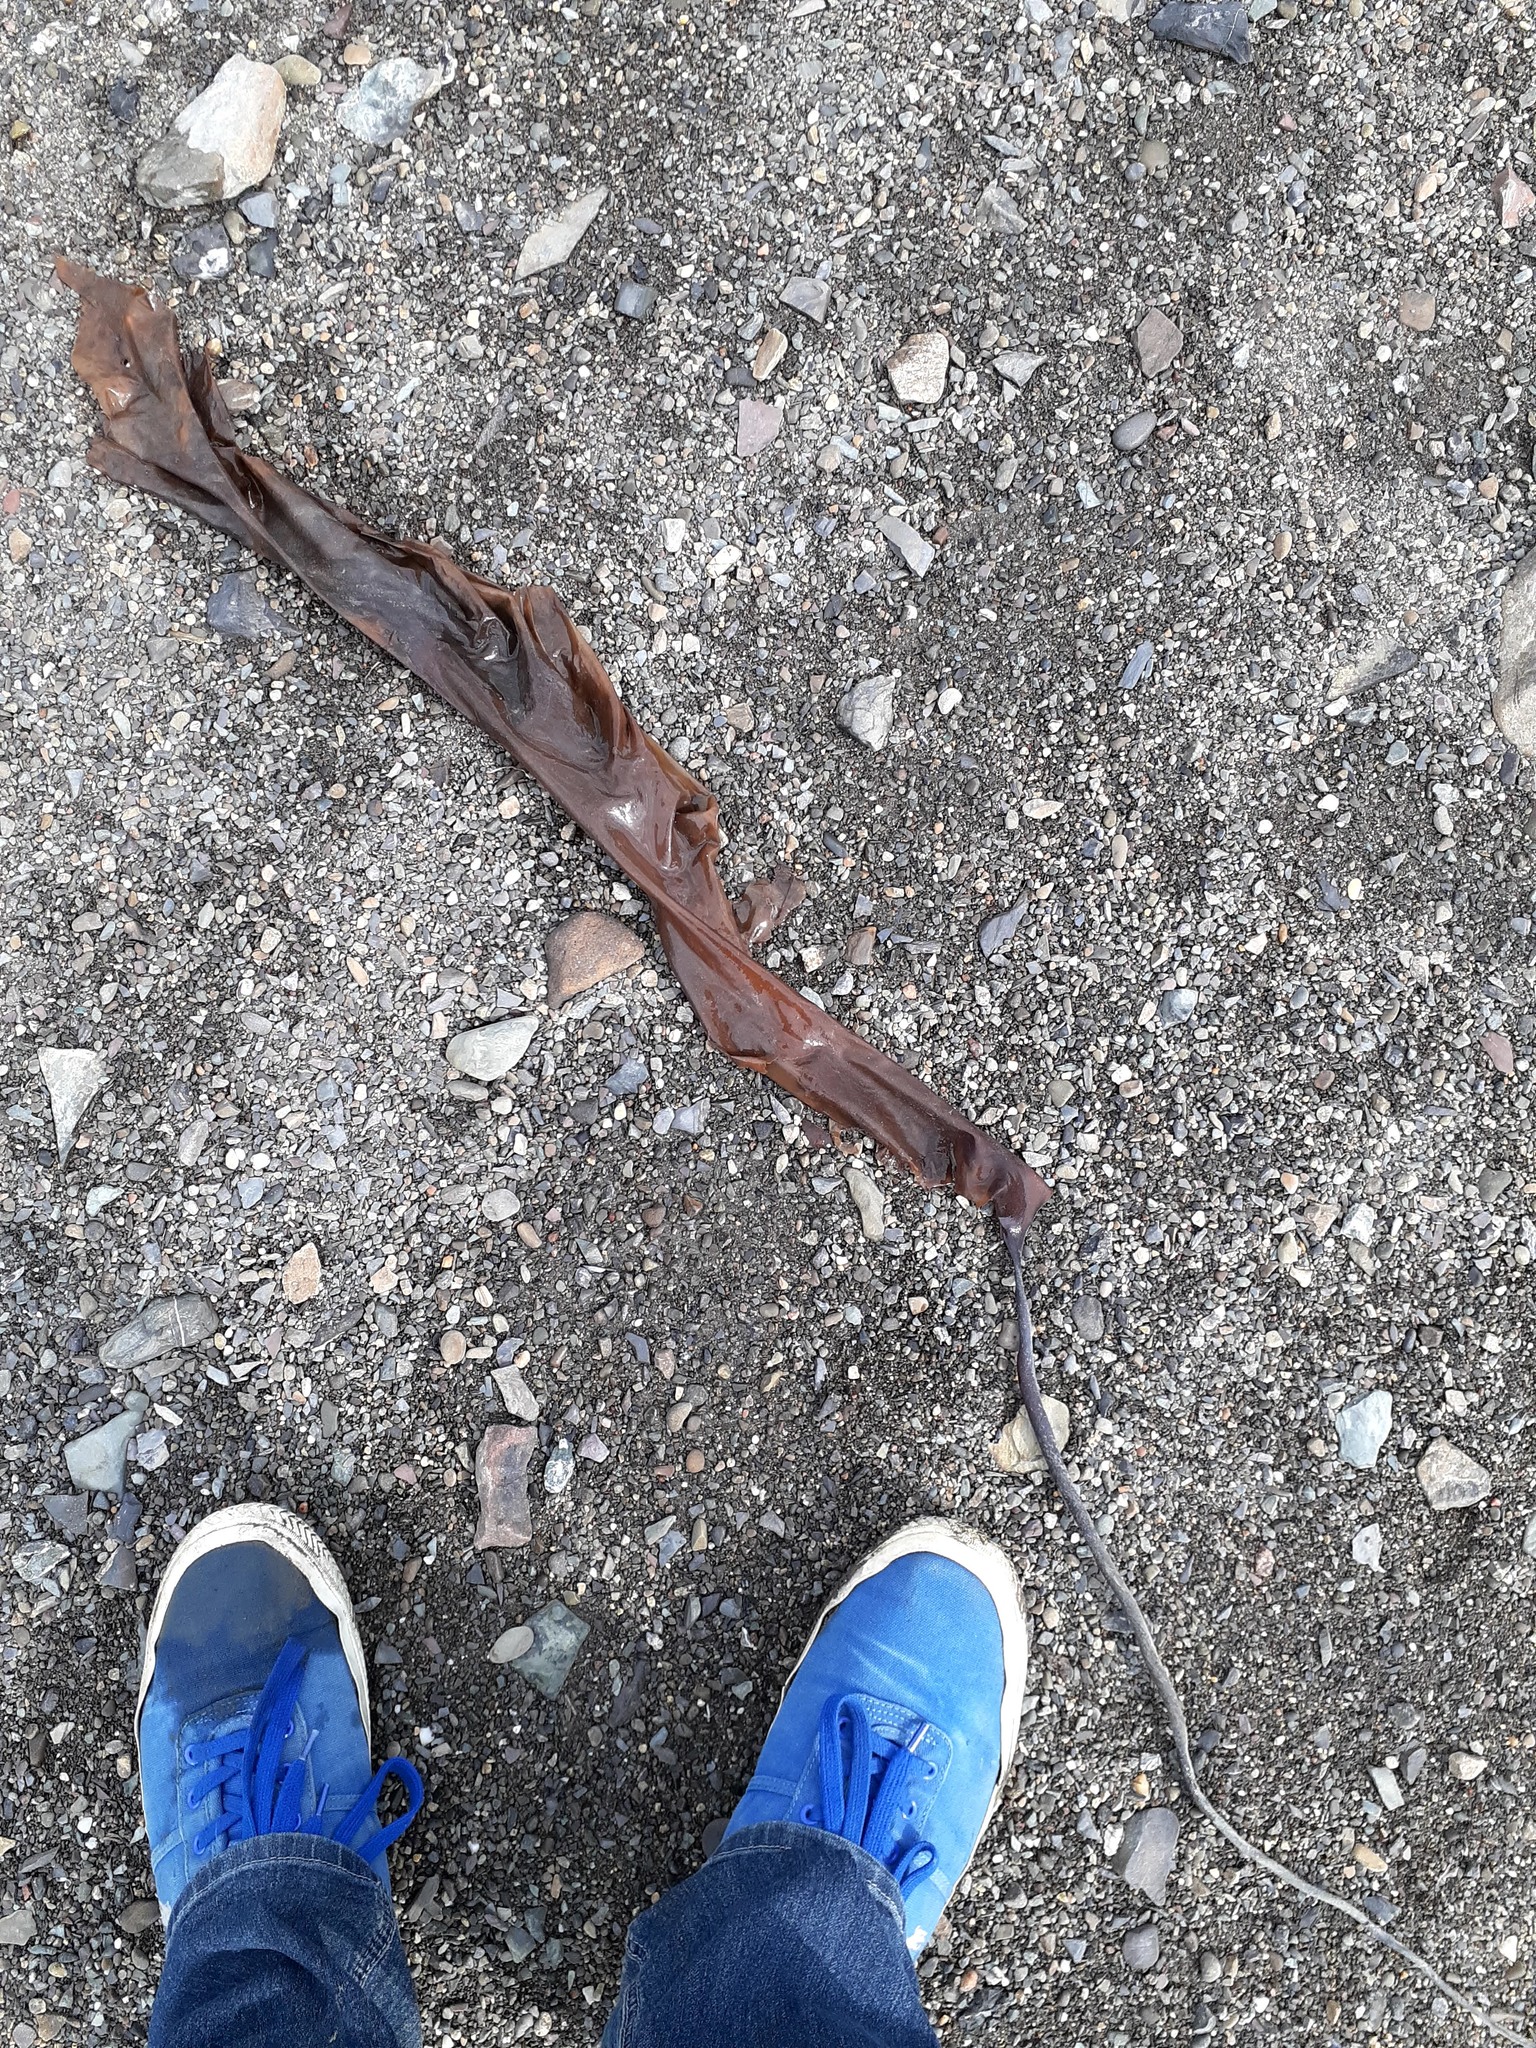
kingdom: Chromista
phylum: Ochrophyta
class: Phaeophyceae
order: Laminariales
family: Laminariaceae
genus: Saccharina
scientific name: Saccharina longicruris
